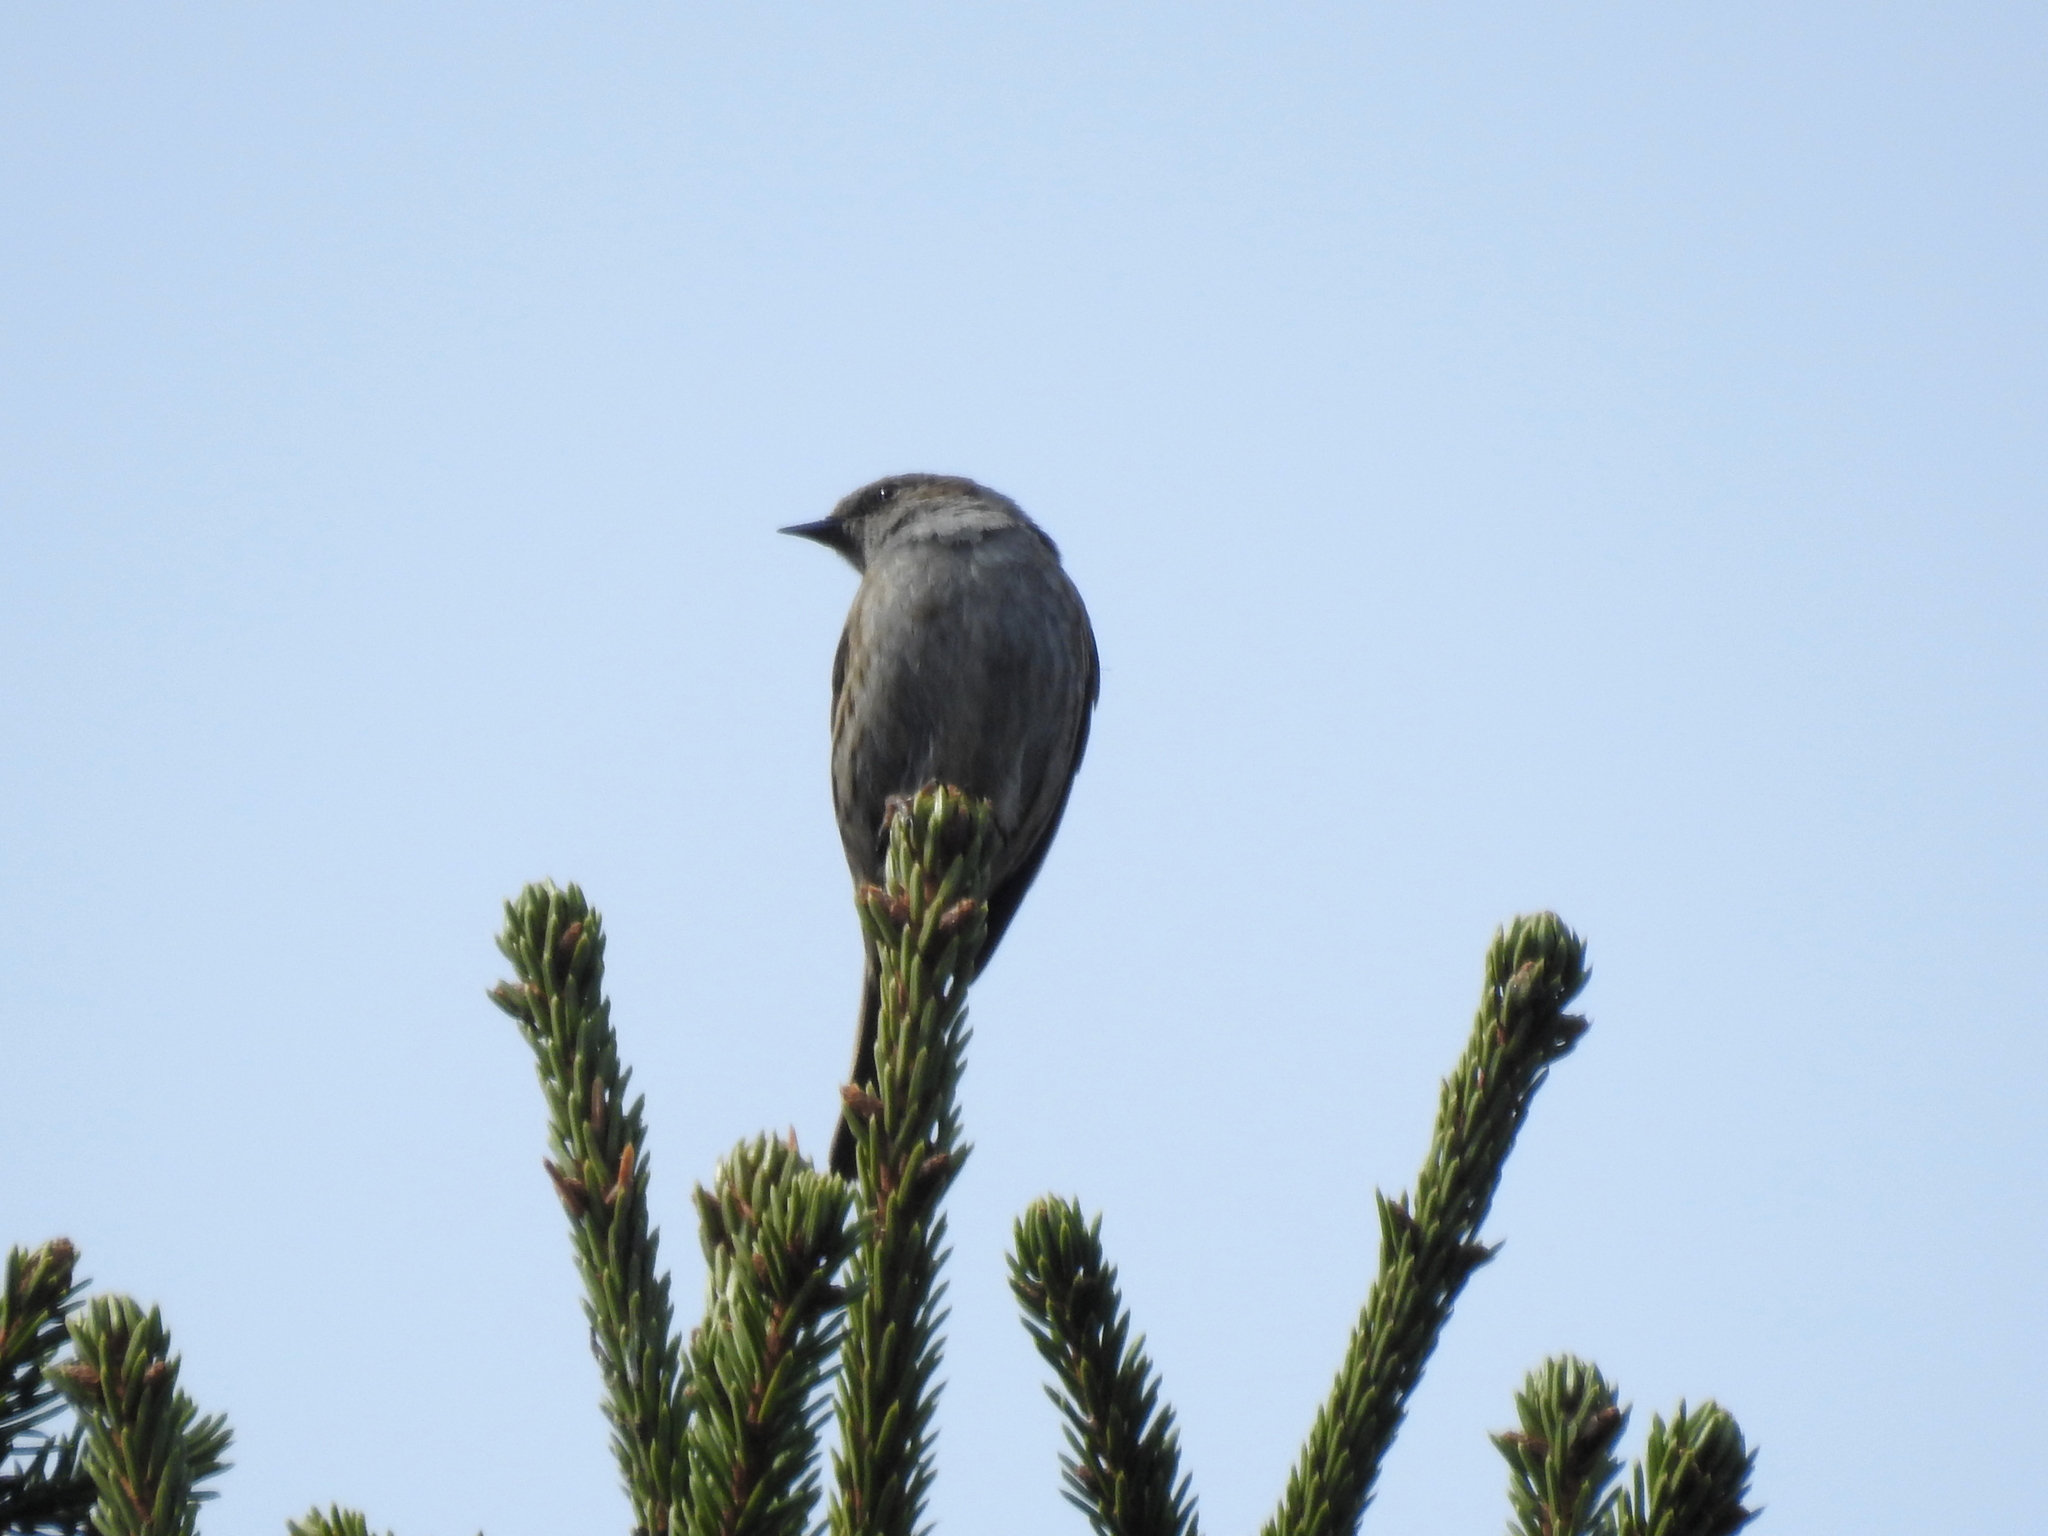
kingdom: Animalia
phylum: Chordata
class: Aves
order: Passeriformes
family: Prunellidae
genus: Prunella
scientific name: Prunella modularis
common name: Dunnock
